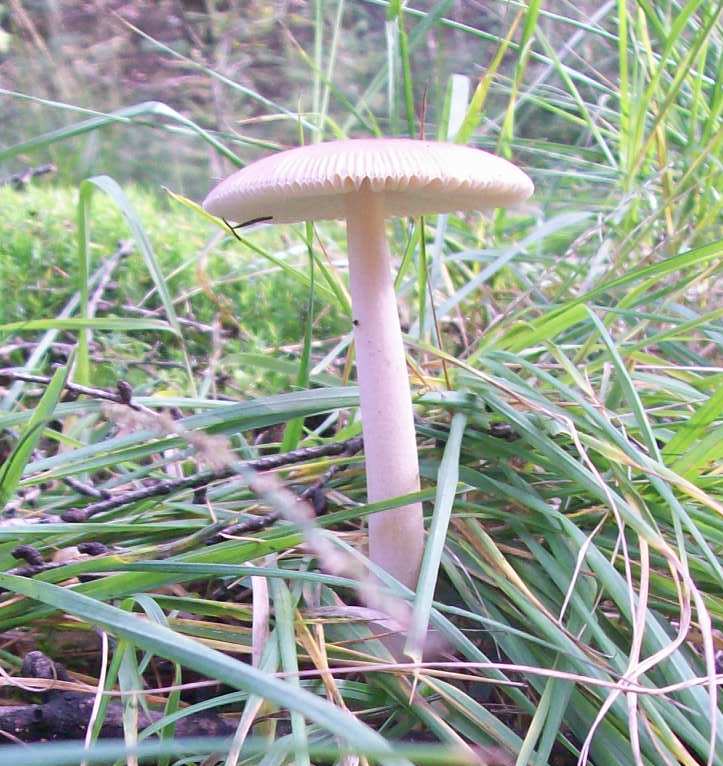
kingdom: Fungi
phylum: Basidiomycota
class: Agaricomycetes
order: Agaricales
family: Amanitaceae
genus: Amanita
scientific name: Amanita fulva
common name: Tawny grisette
